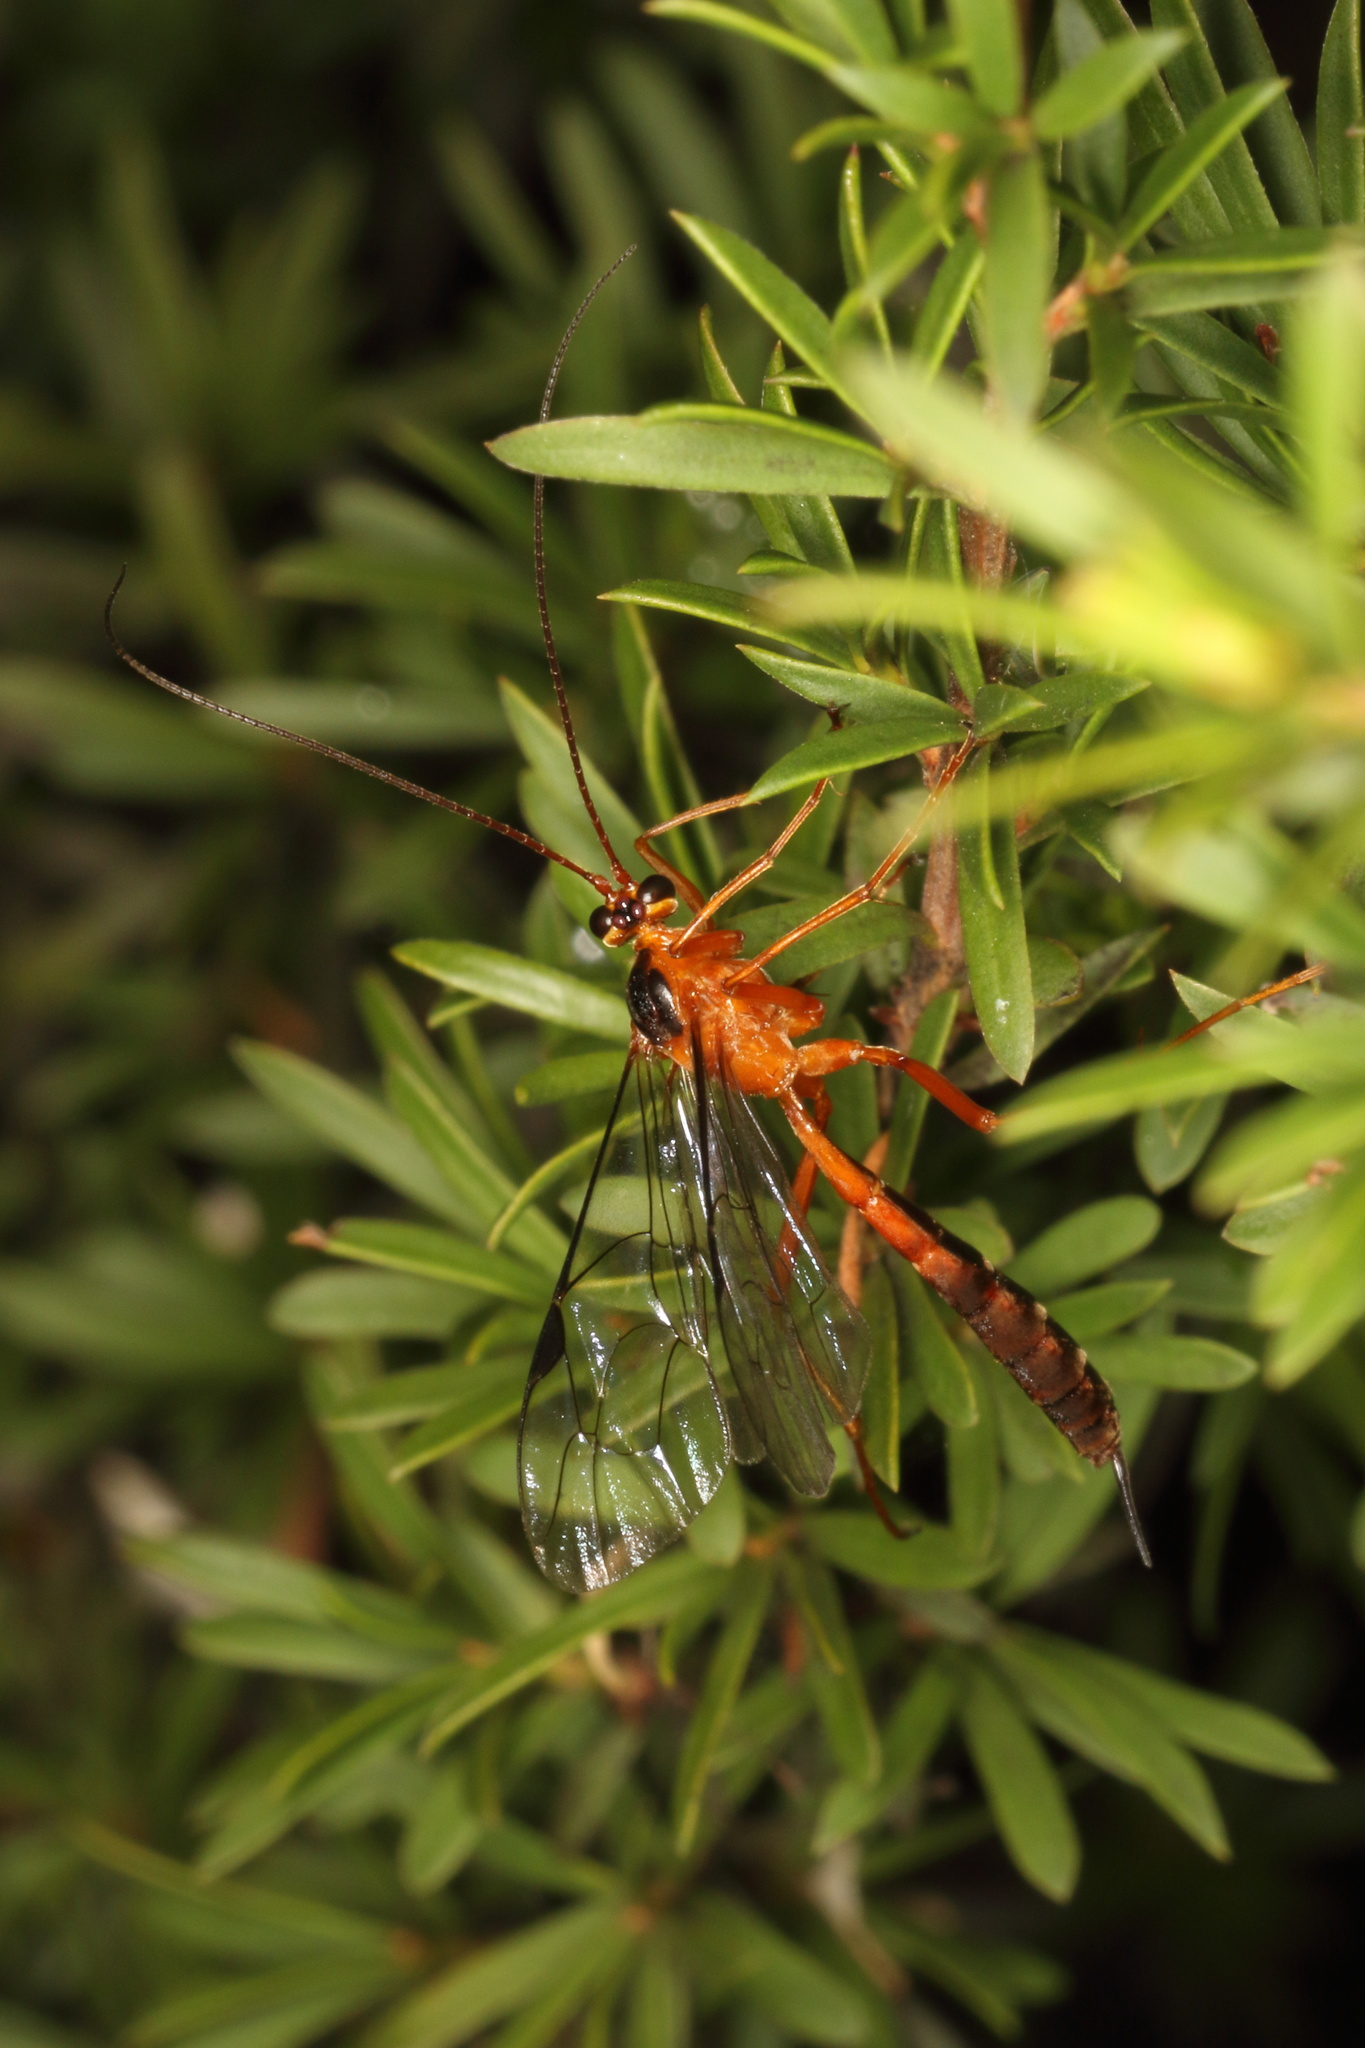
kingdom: Animalia
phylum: Arthropoda
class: Insecta
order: Hymenoptera
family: Ichneumonidae
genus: Netelia
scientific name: Netelia ephippiata
